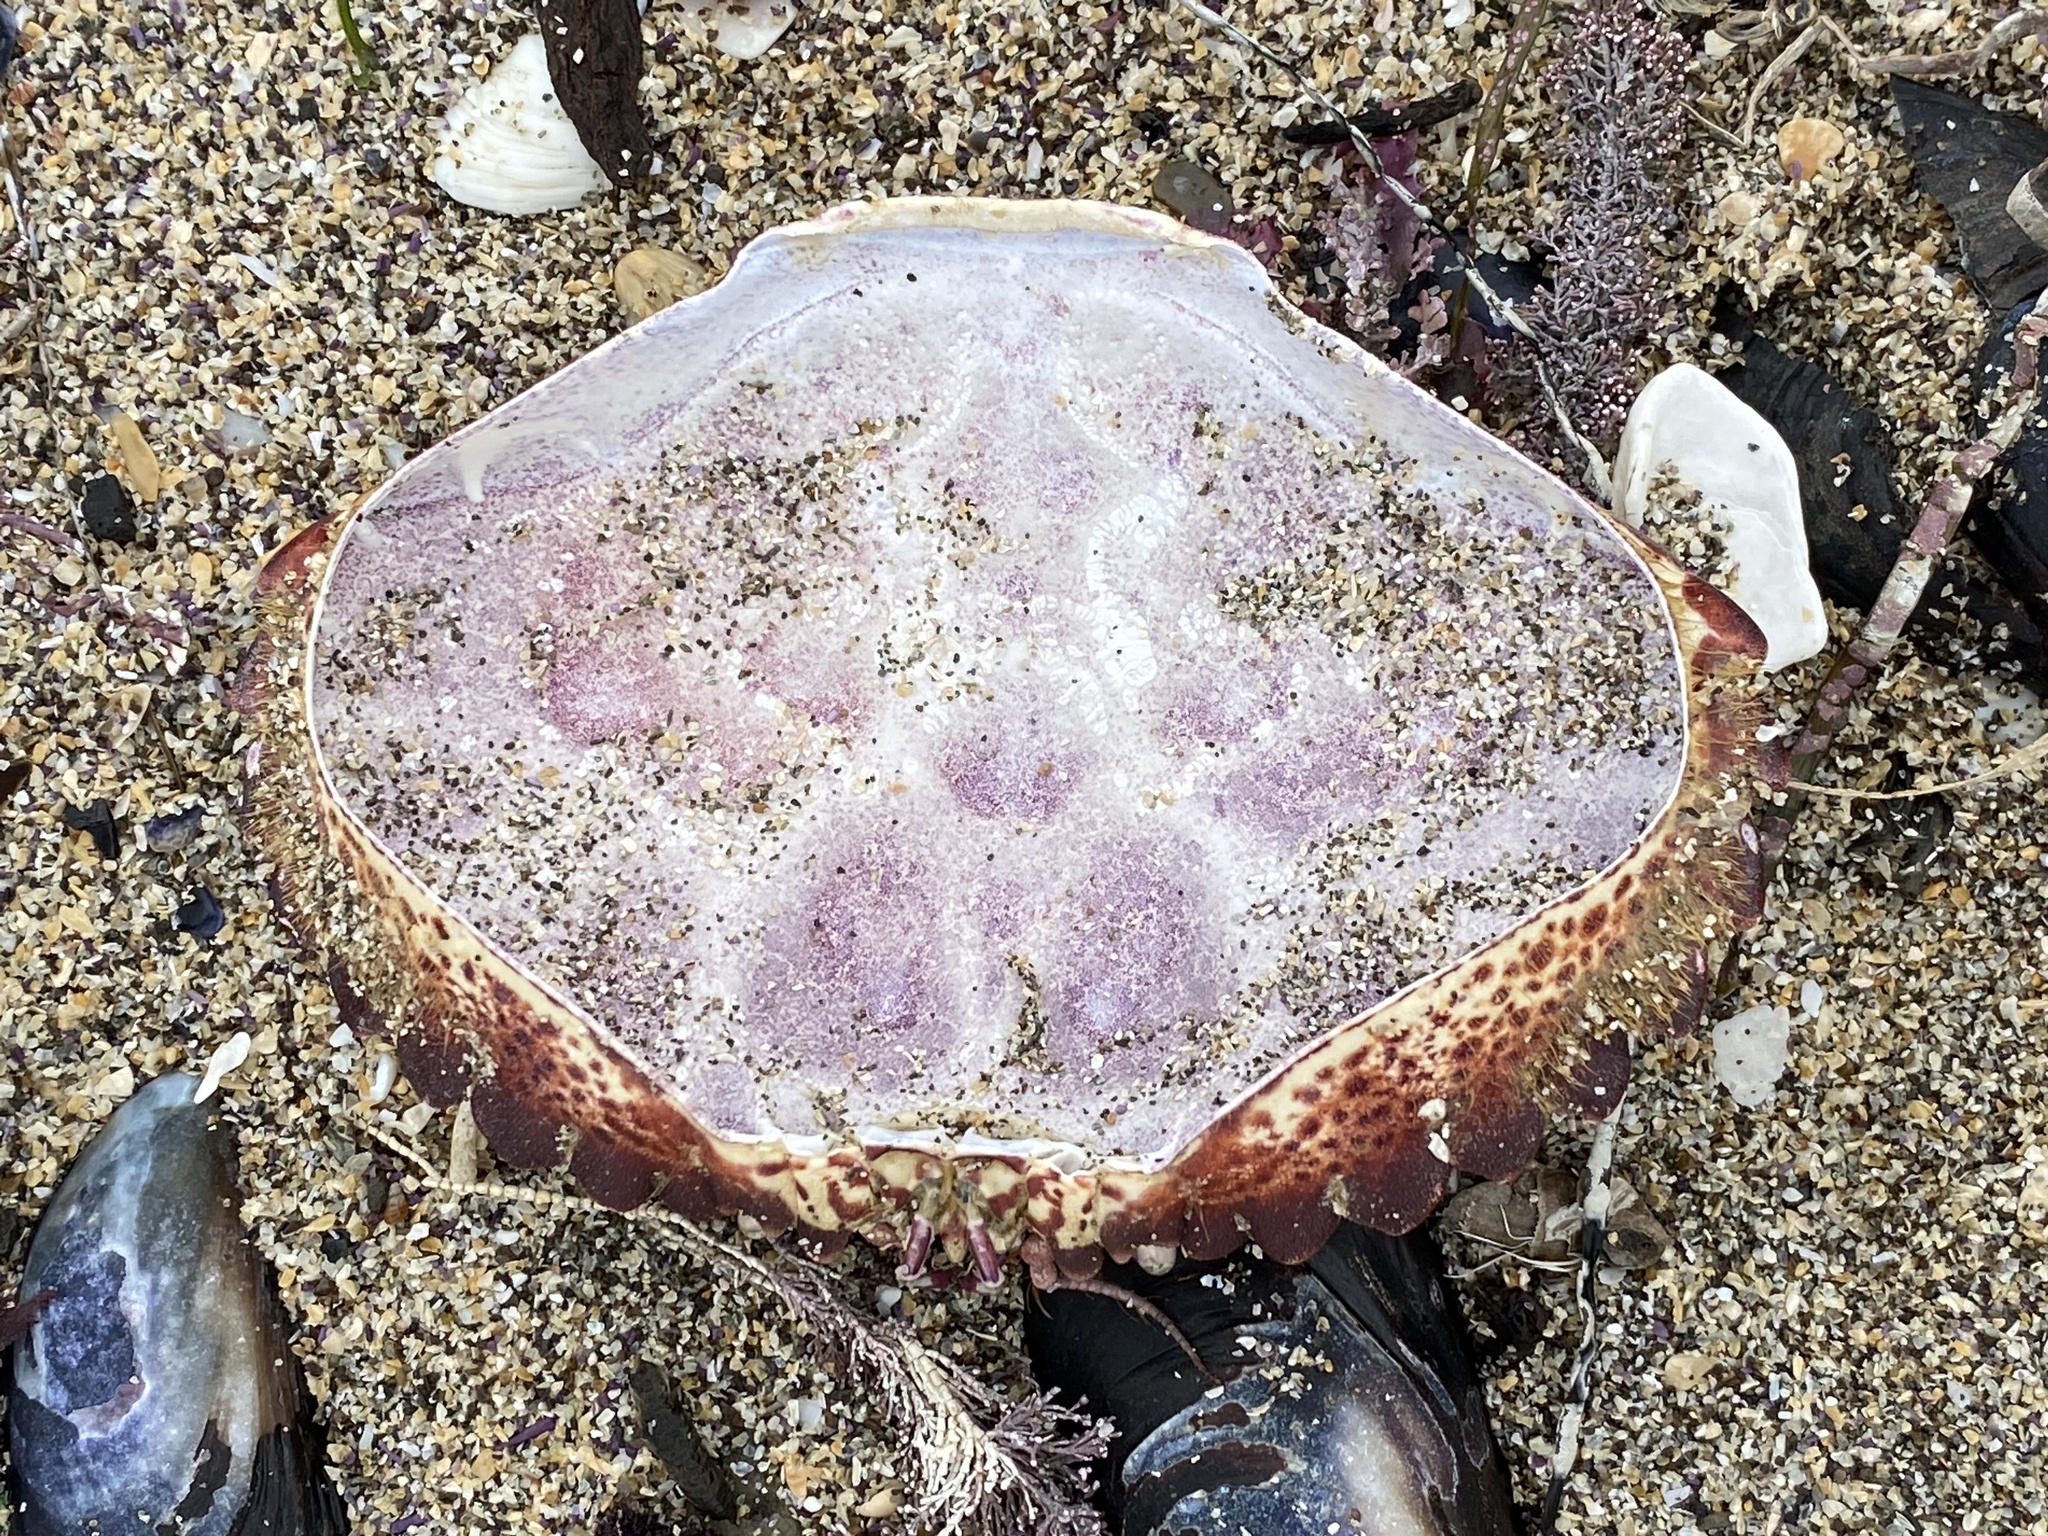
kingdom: Animalia
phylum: Arthropoda
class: Malacostraca
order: Decapoda
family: Cancridae
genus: Romaleon
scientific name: Romaleon antennarium
